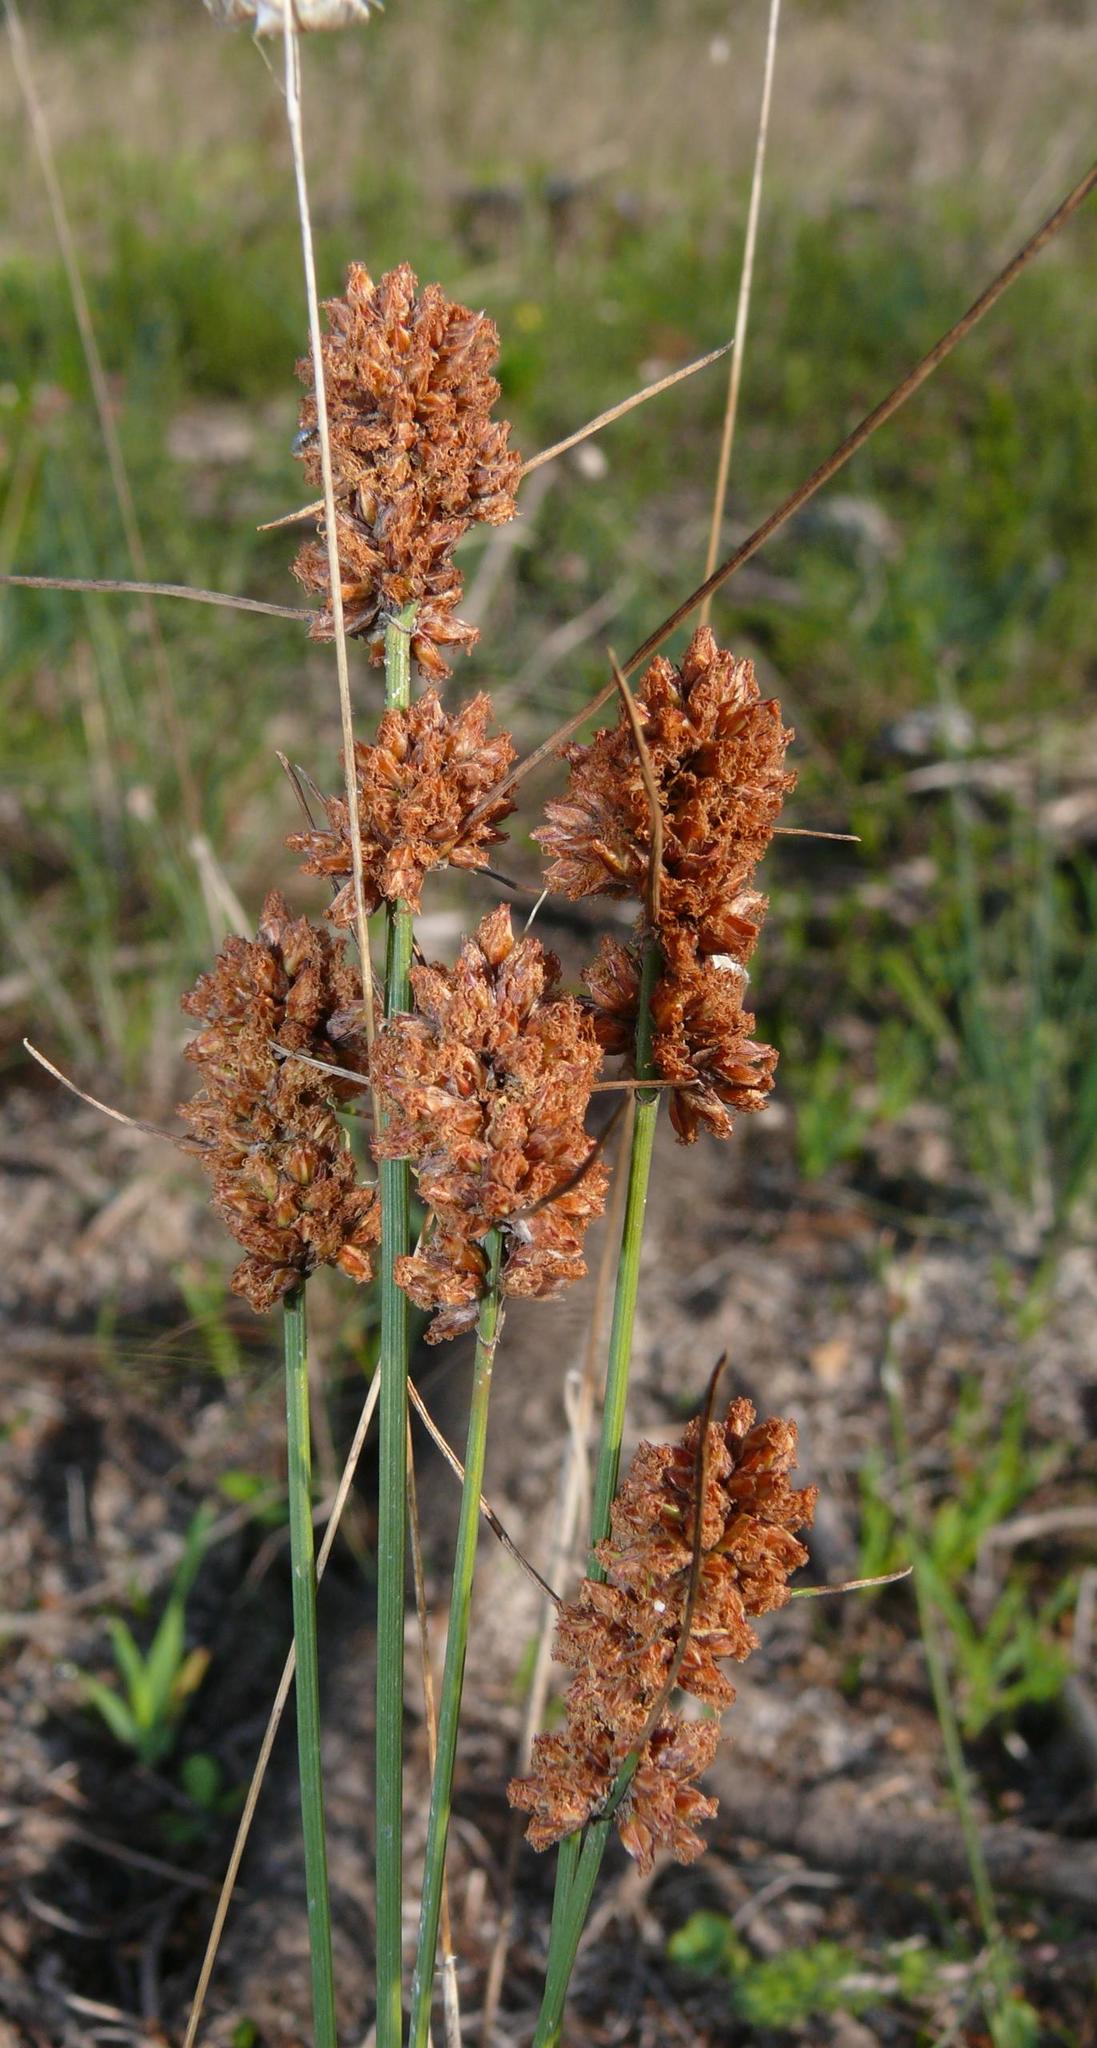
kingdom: Plantae
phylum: Tracheophyta
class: Liliopsida
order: Poales
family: Cyperaceae
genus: Ficinia
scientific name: Ficinia bulbosa
